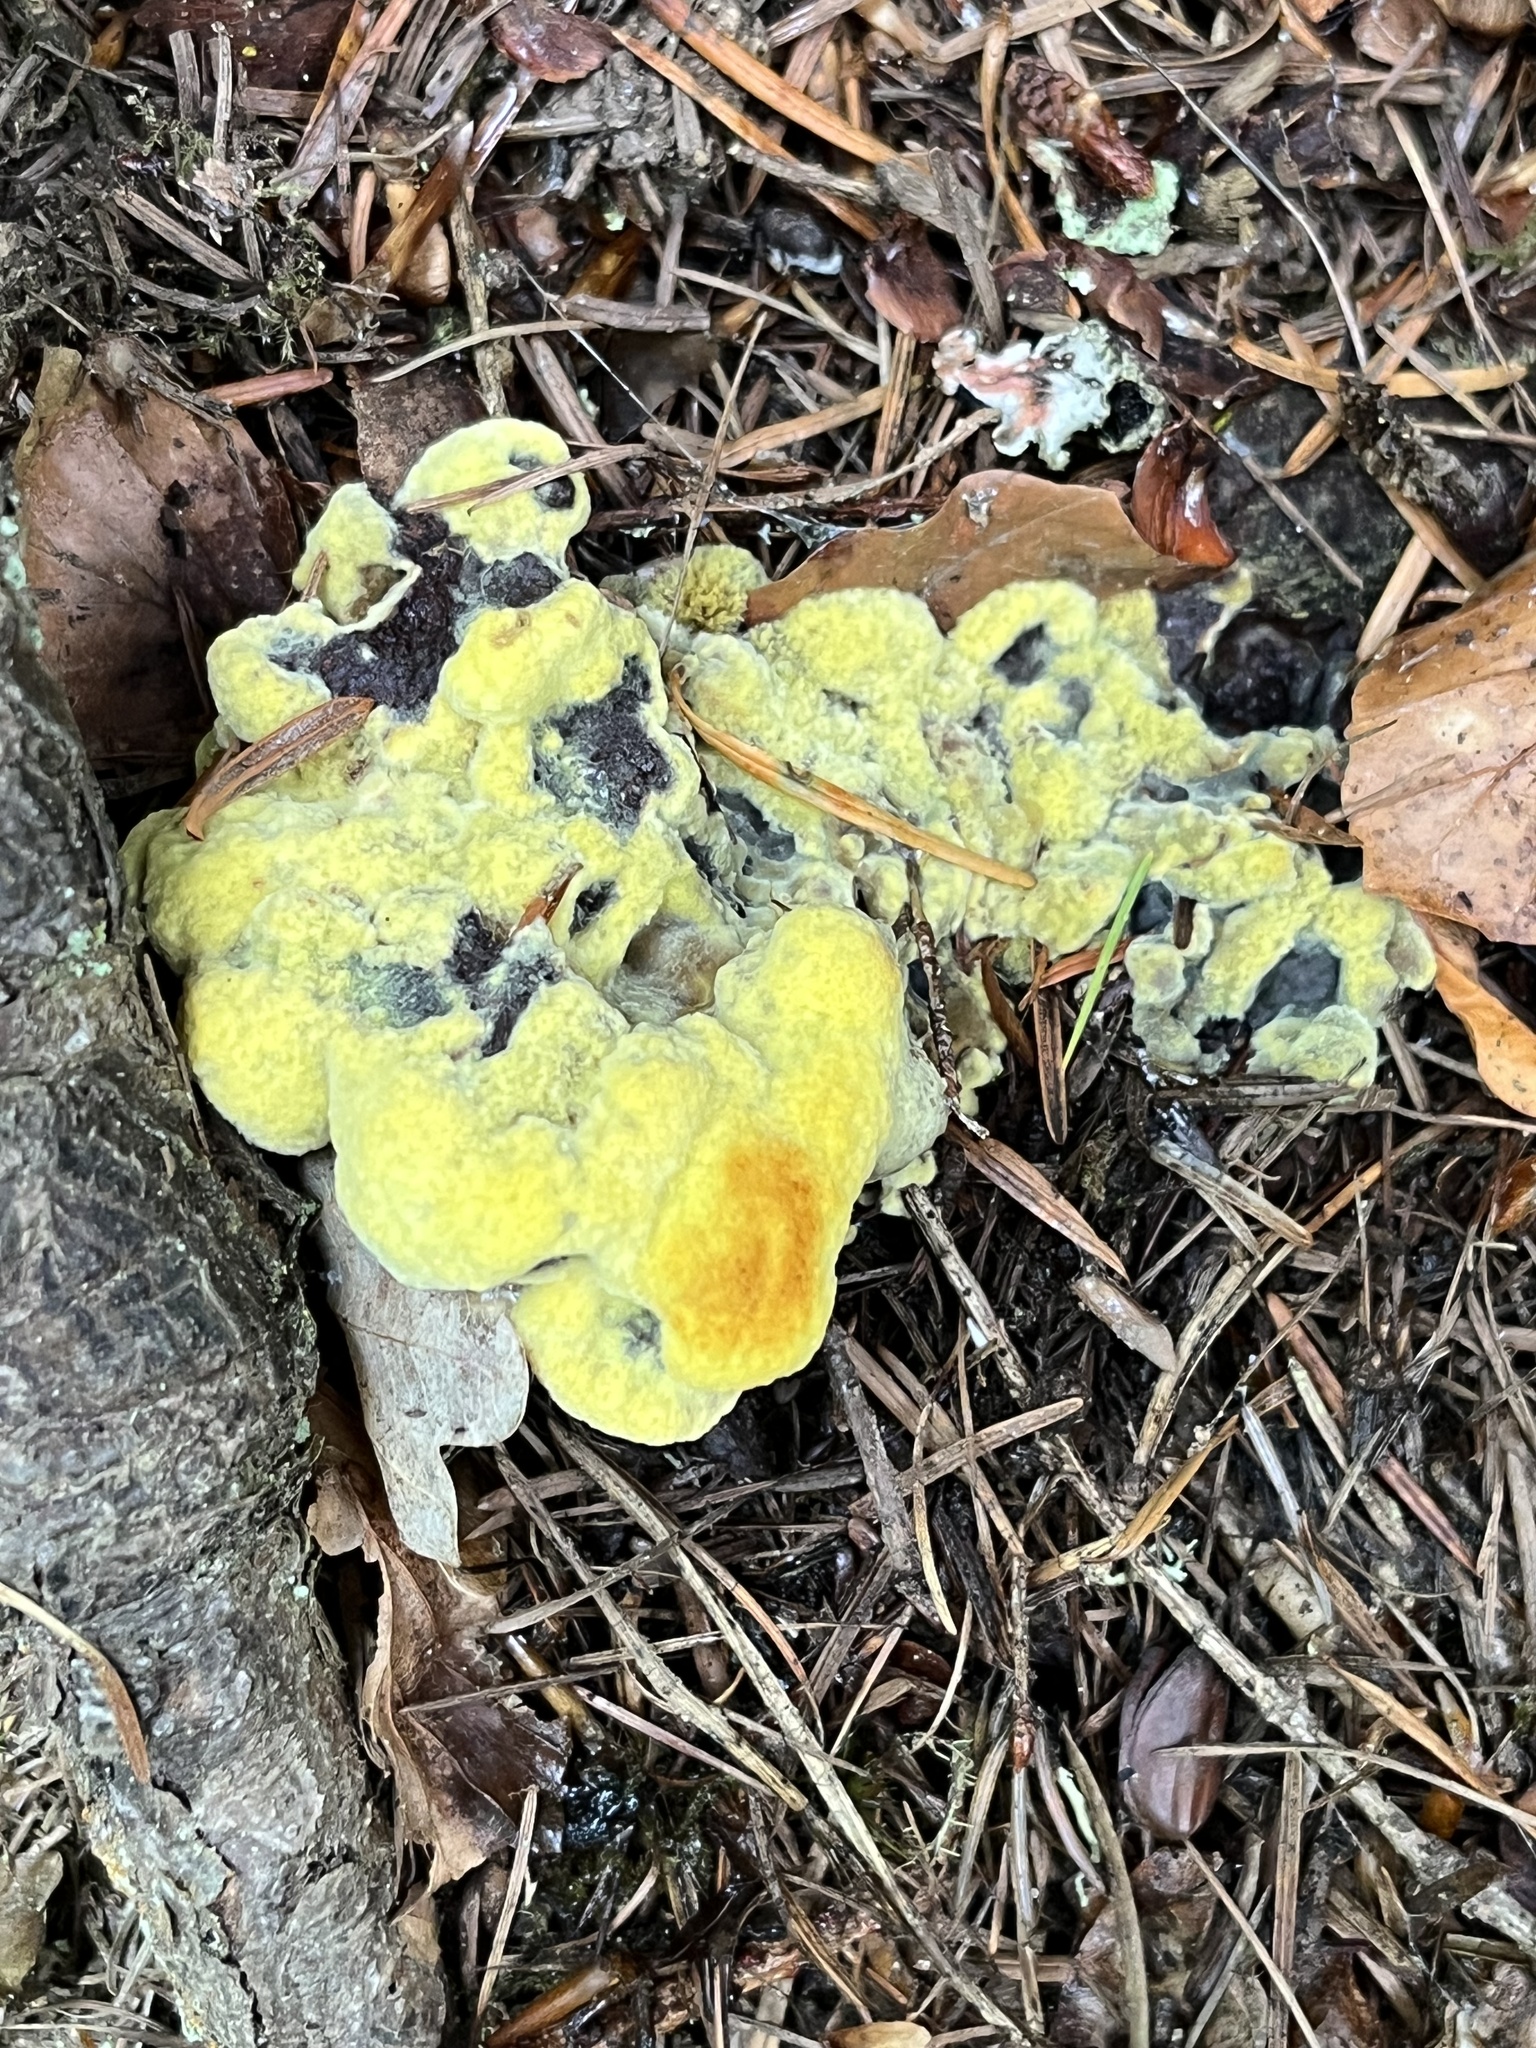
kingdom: Fungi
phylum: Basidiomycota
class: Agaricomycetes
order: Polyporales
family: Laetiporaceae
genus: Phaeolus
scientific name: Phaeolus schweinitzii
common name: Dyer's mazegill
